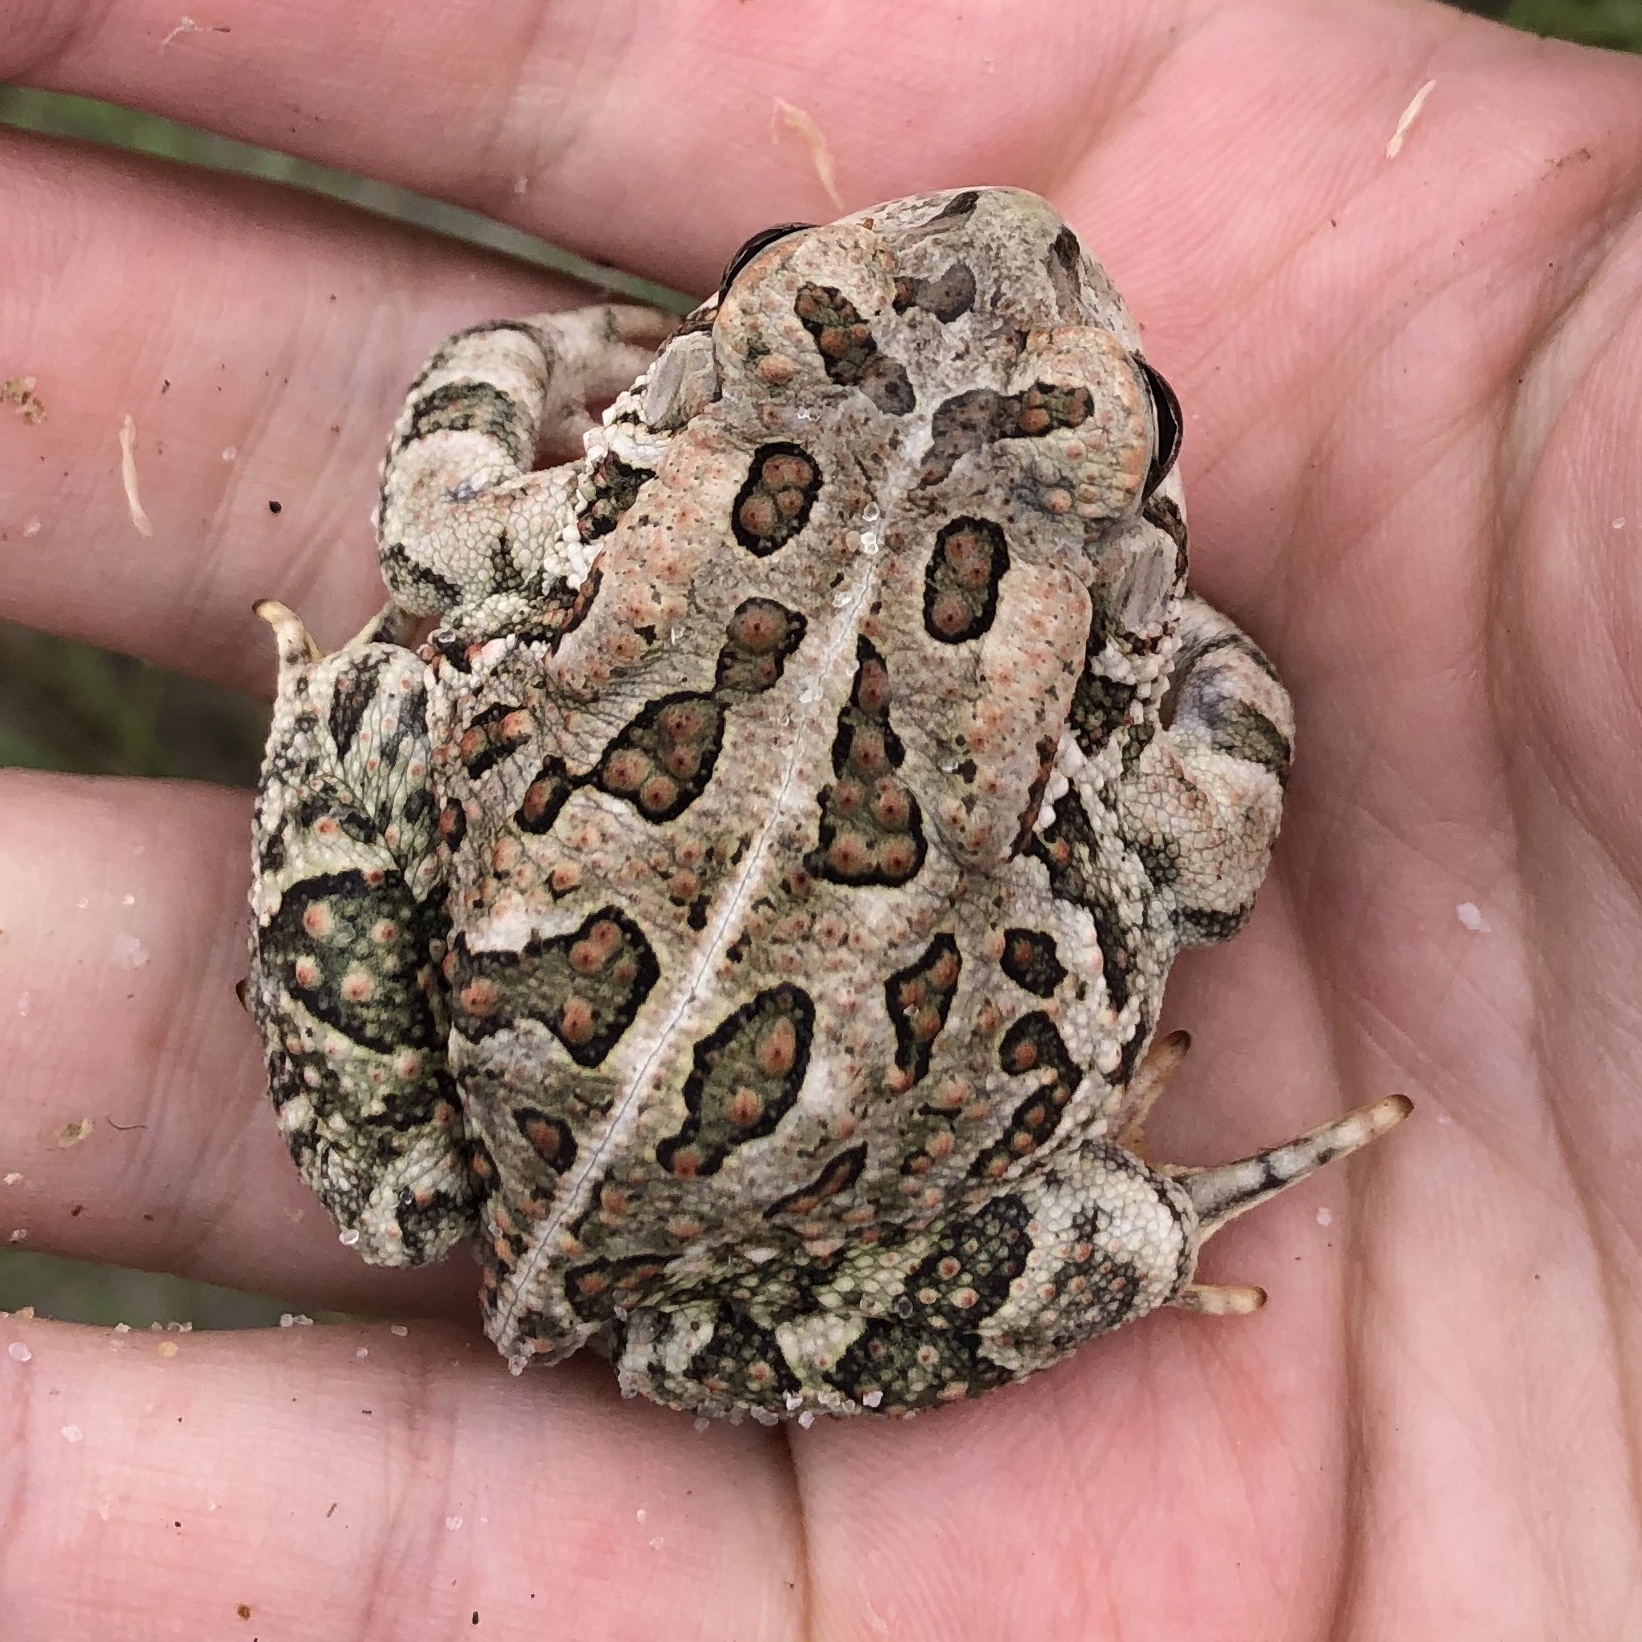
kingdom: Animalia
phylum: Chordata
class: Amphibia
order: Anura
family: Bufonidae
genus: Anaxyrus
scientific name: Anaxyrus fowleri
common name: Fowler's toad
